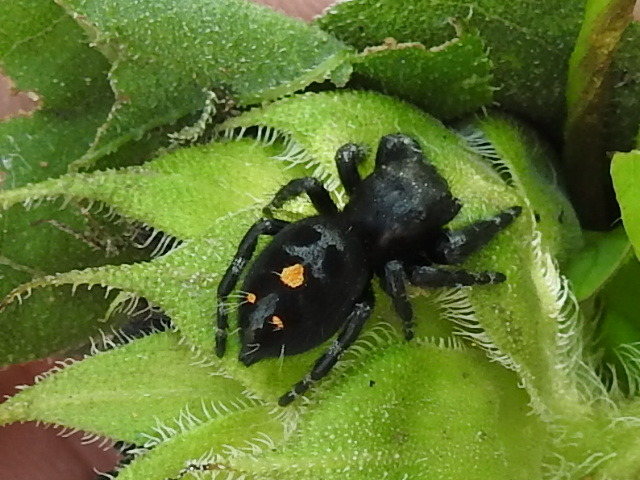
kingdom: Animalia
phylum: Arthropoda
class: Arachnida
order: Araneae
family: Salticidae
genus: Phidippus
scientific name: Phidippus audax
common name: Bold jumper
